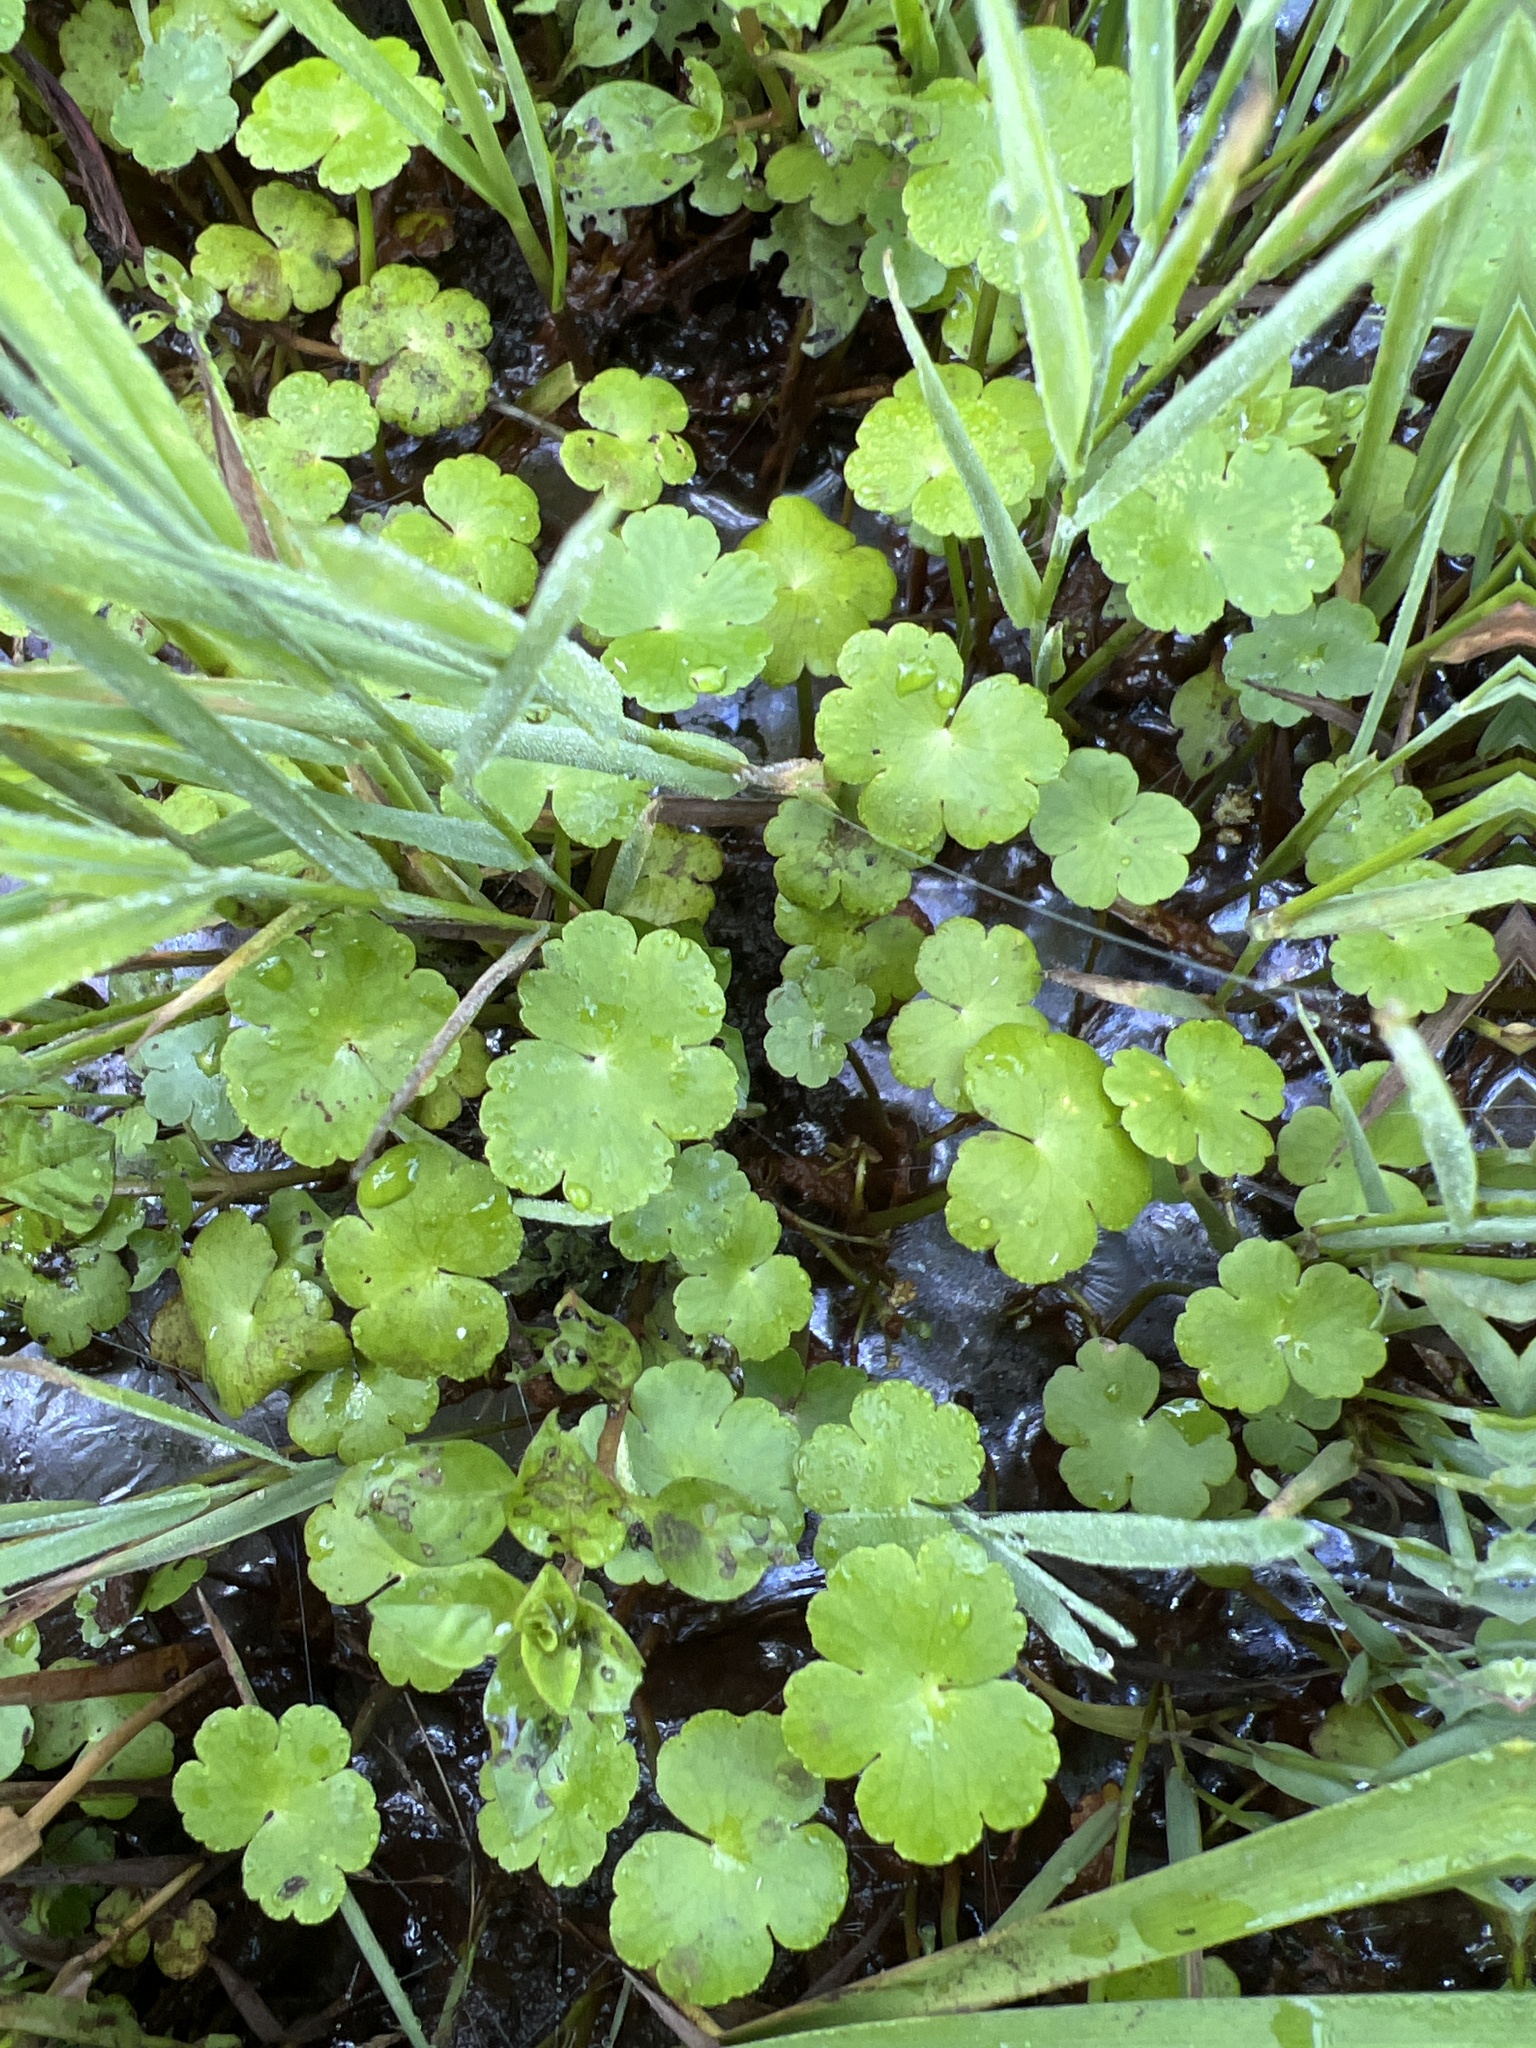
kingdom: Plantae
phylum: Tracheophyta
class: Magnoliopsida
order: Apiales
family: Araliaceae
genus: Hydrocotyle
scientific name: Hydrocotyle ranunculoides
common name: Floating pennywort
